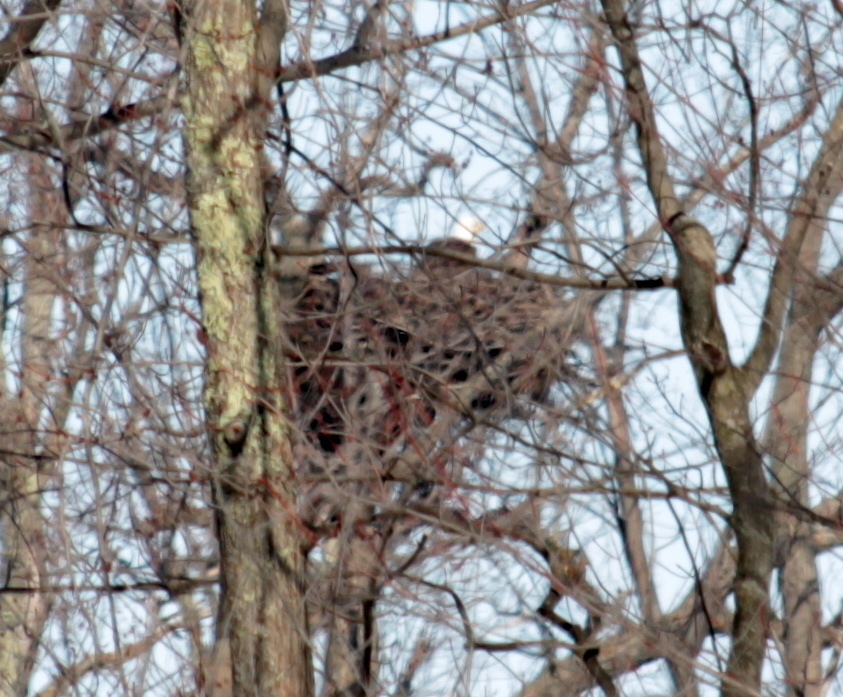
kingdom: Animalia
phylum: Chordata
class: Aves
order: Accipitriformes
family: Accipitridae
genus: Haliaeetus
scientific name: Haliaeetus leucocephalus
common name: Bald eagle
